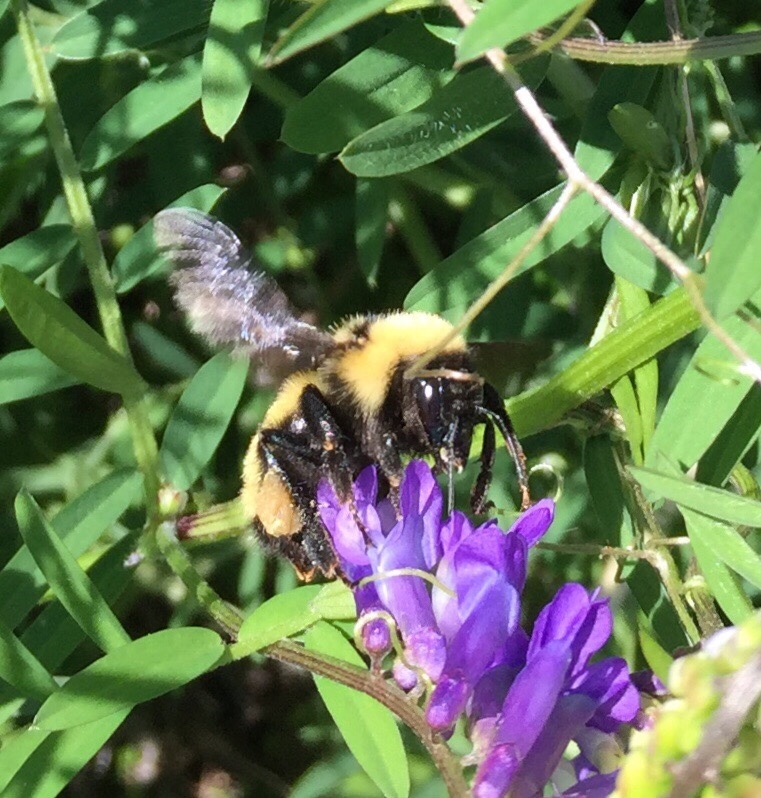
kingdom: Animalia
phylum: Arthropoda
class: Insecta
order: Hymenoptera
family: Apidae
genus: Bombus
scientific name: Bombus fervidus
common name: Yellow bumble bee
